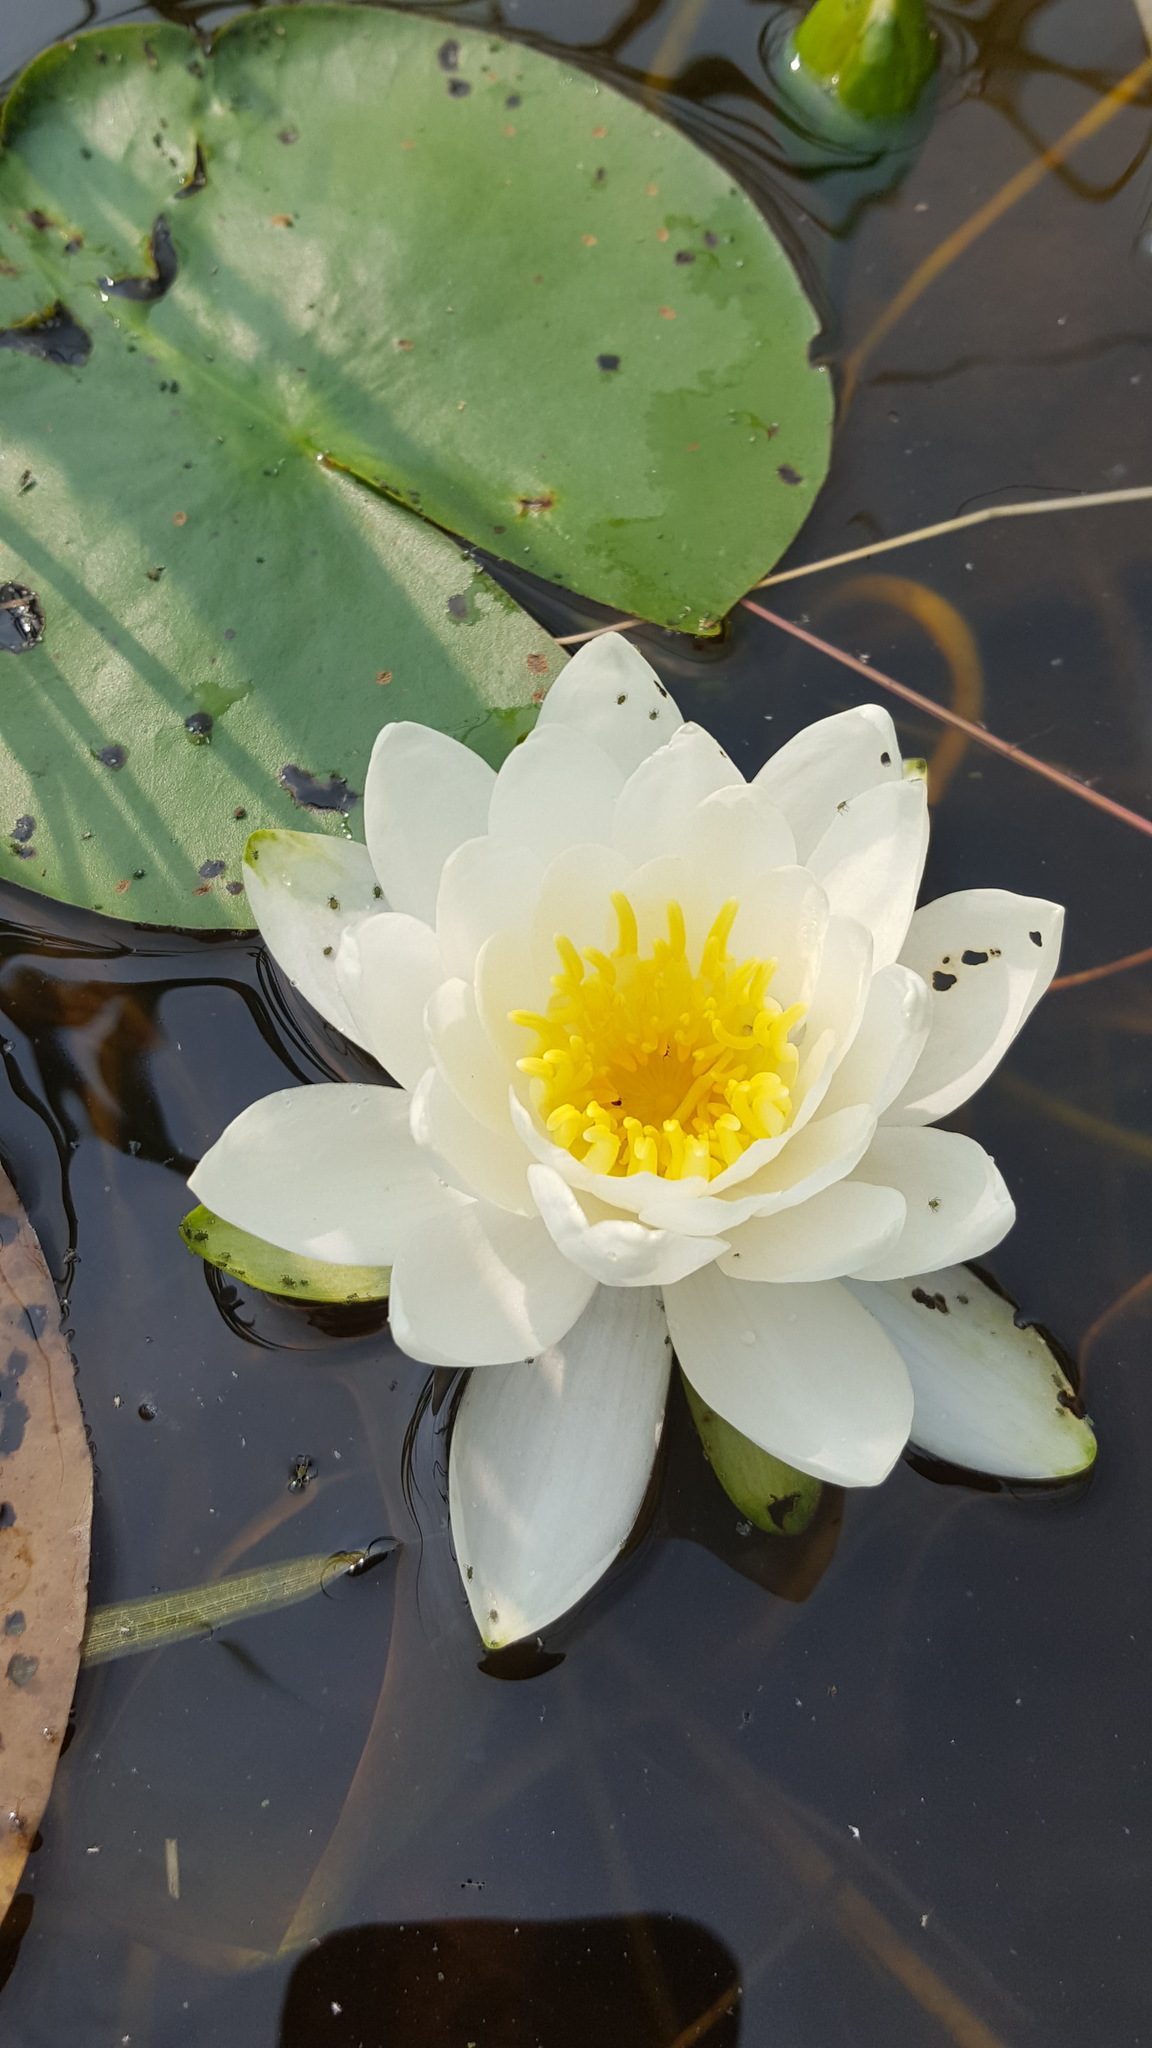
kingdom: Plantae
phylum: Tracheophyta
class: Magnoliopsida
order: Nymphaeales
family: Nymphaeaceae
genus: Nymphaea
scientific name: Nymphaea odorata
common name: Fragrant water-lily
